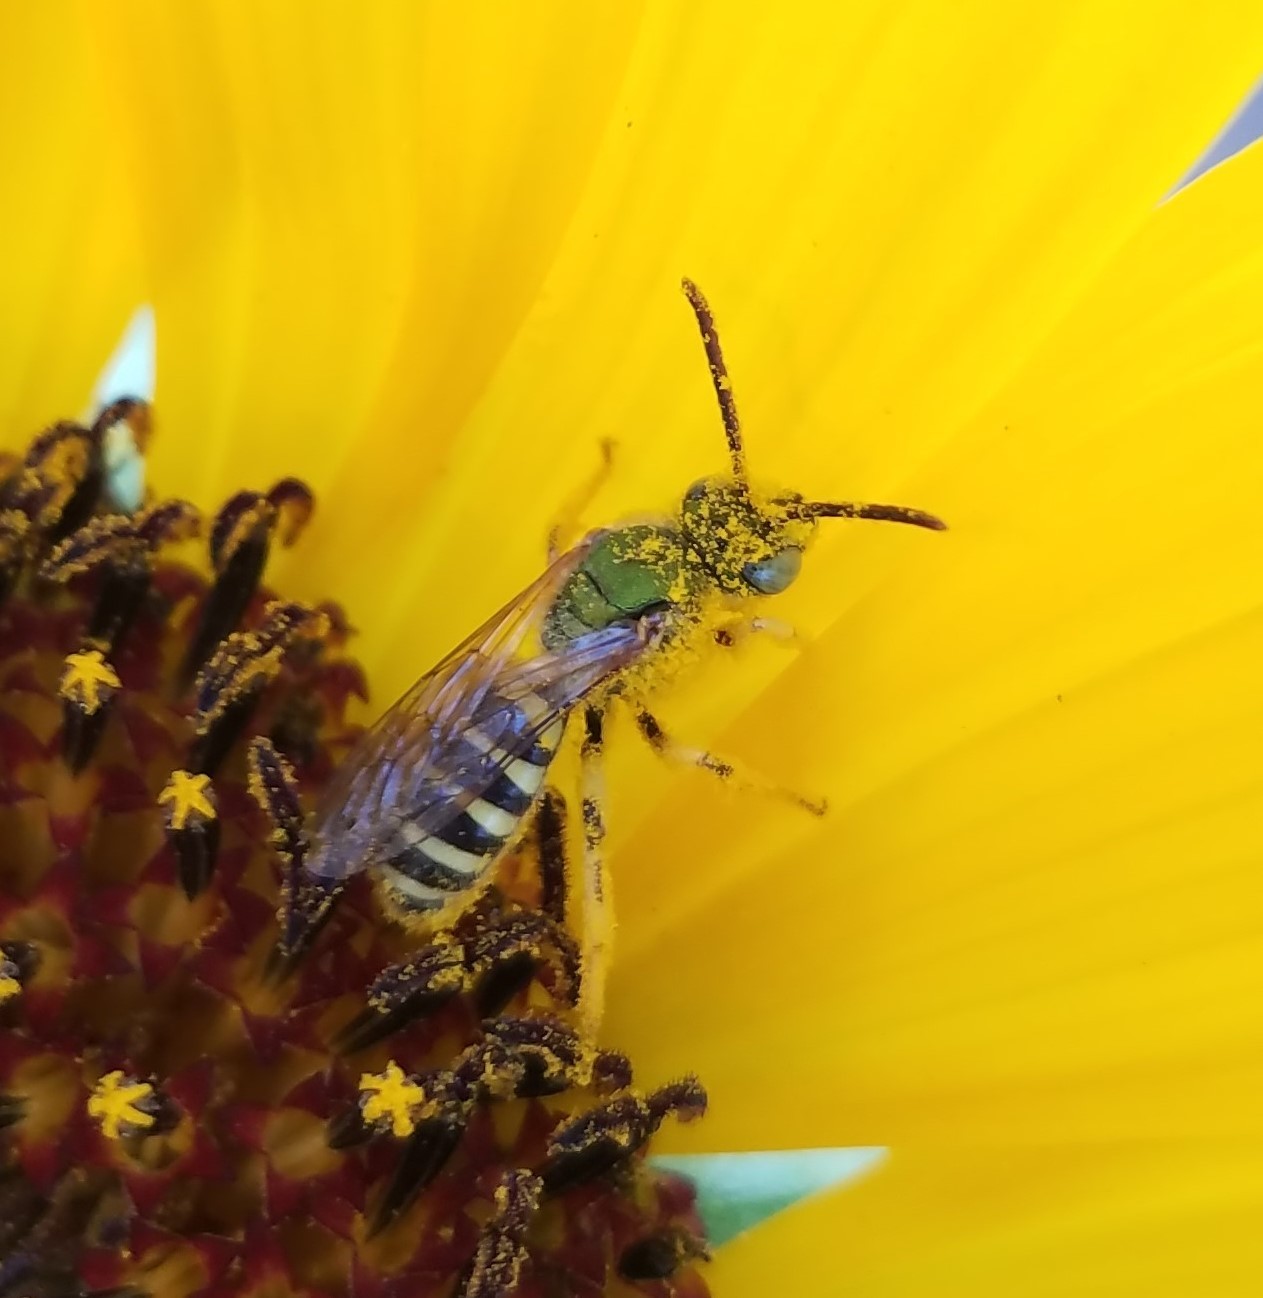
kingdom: Animalia
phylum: Arthropoda
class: Insecta
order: Hymenoptera
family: Halictidae
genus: Agapostemon
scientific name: Agapostemon virescens
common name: Bicolored striped sweat bee
